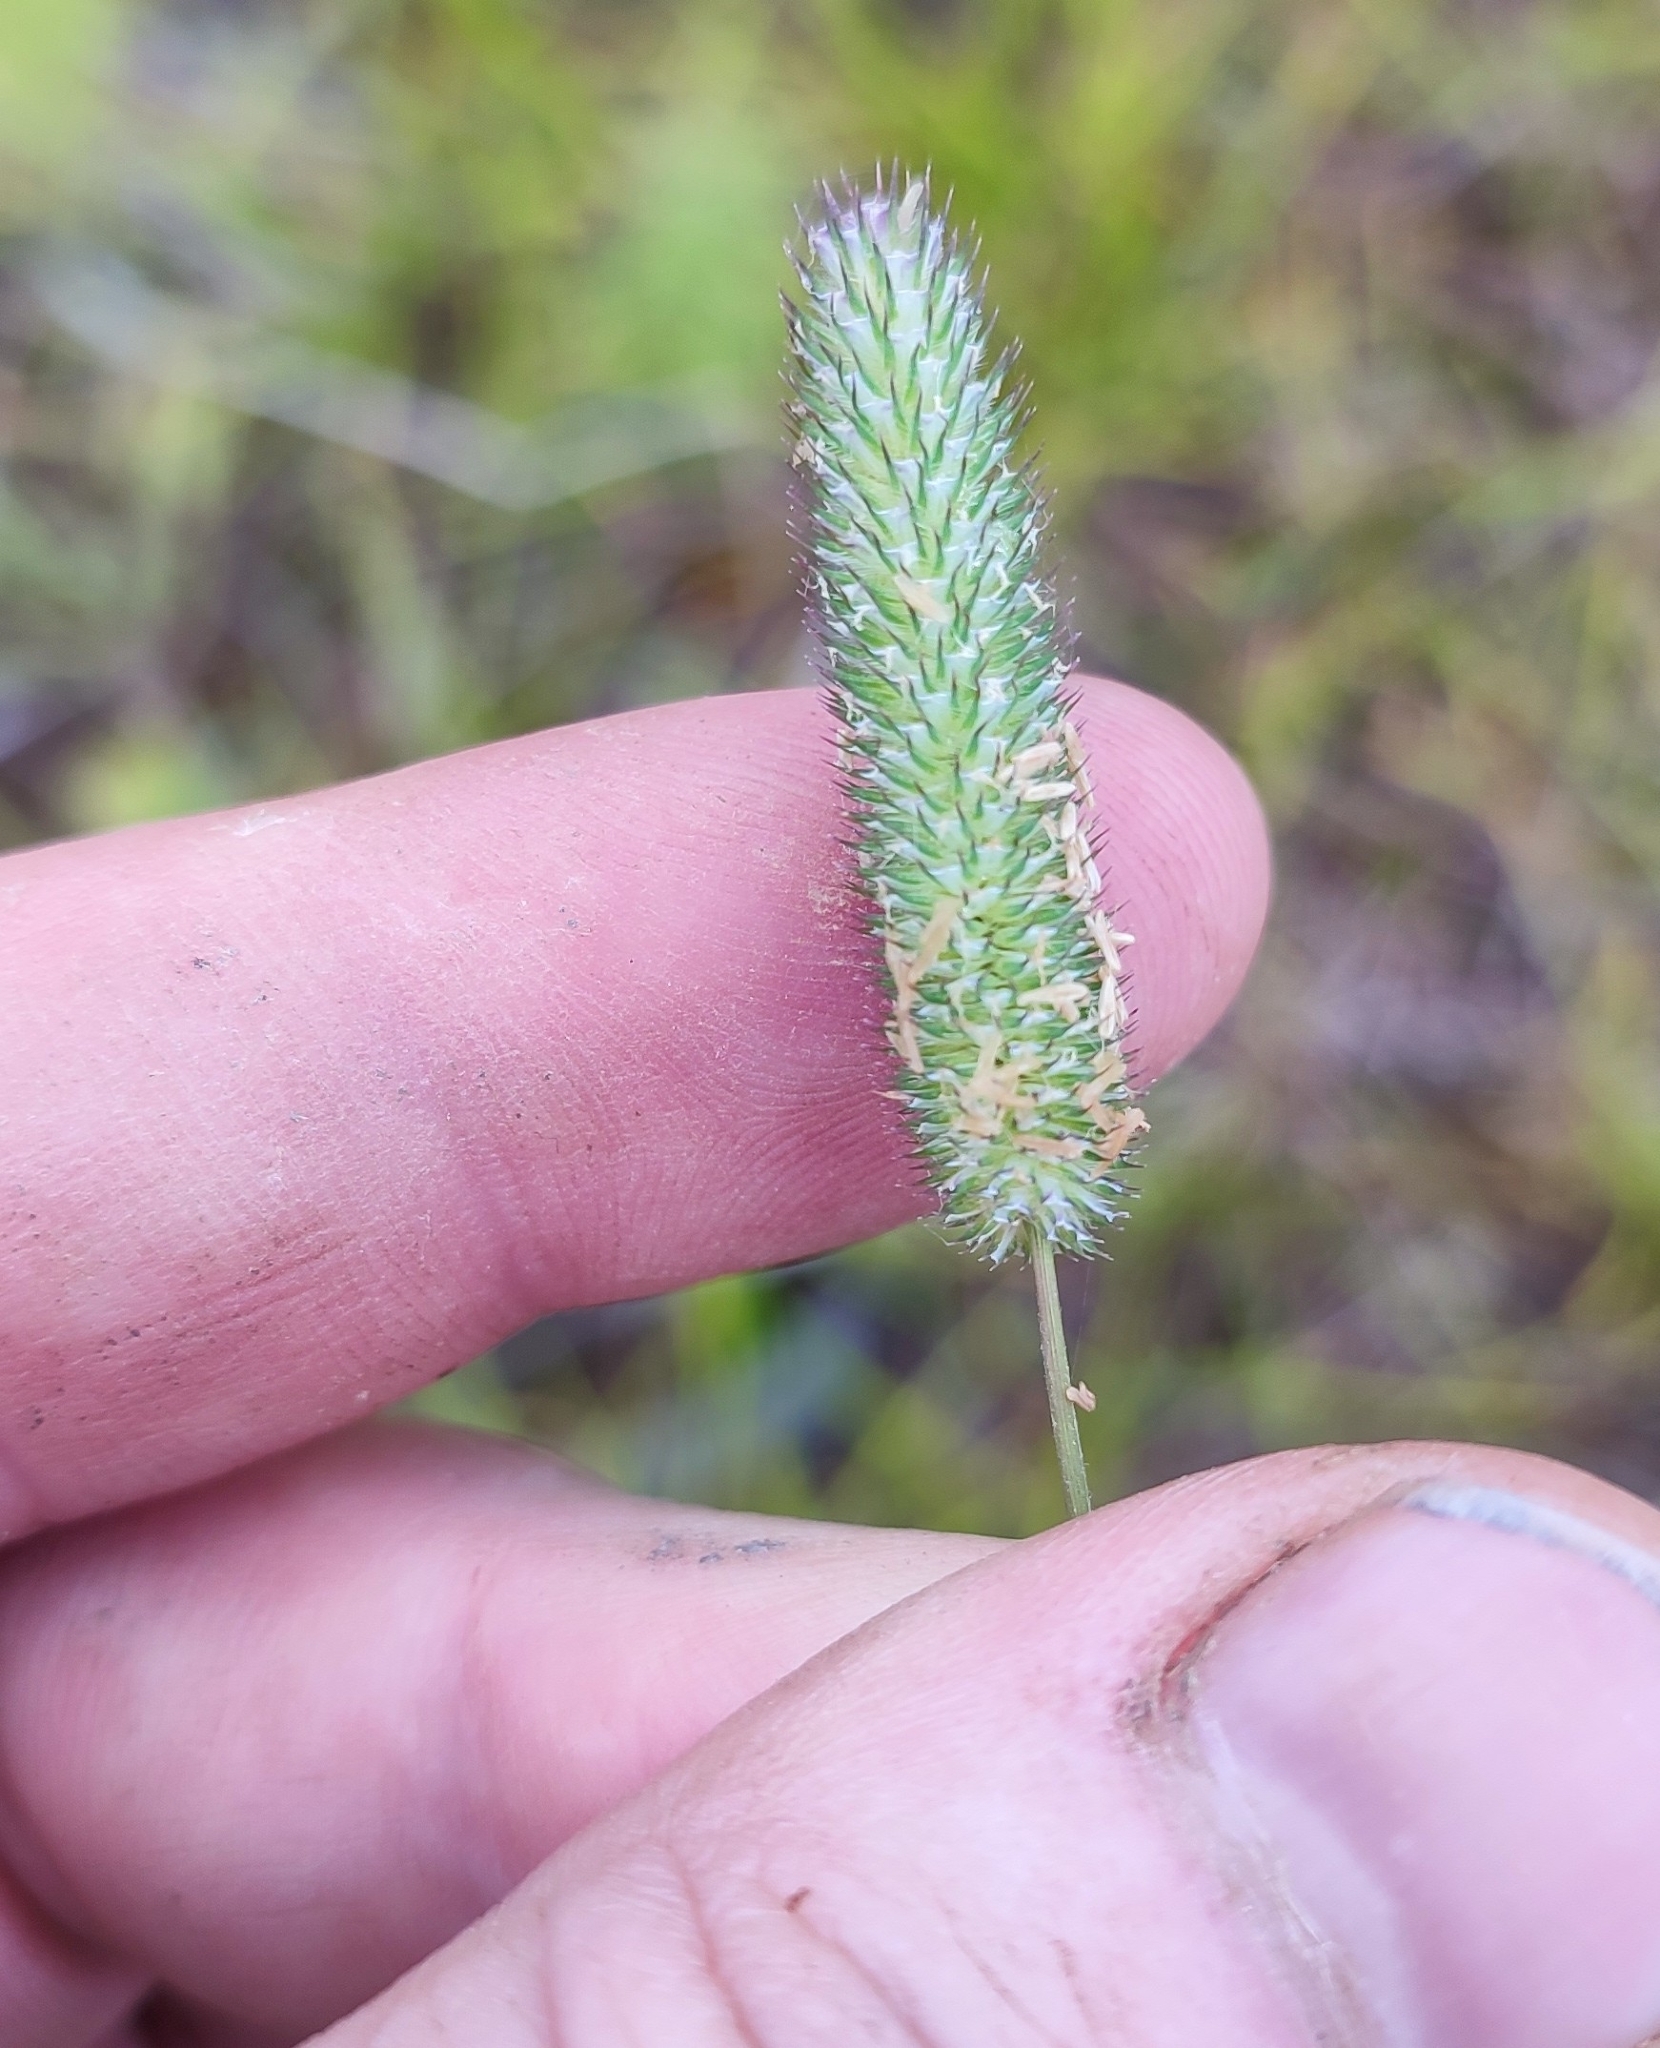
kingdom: Plantae
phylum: Tracheophyta
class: Liliopsida
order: Poales
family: Poaceae
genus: Phleum
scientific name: Phleum pratense
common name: Timothy grass
